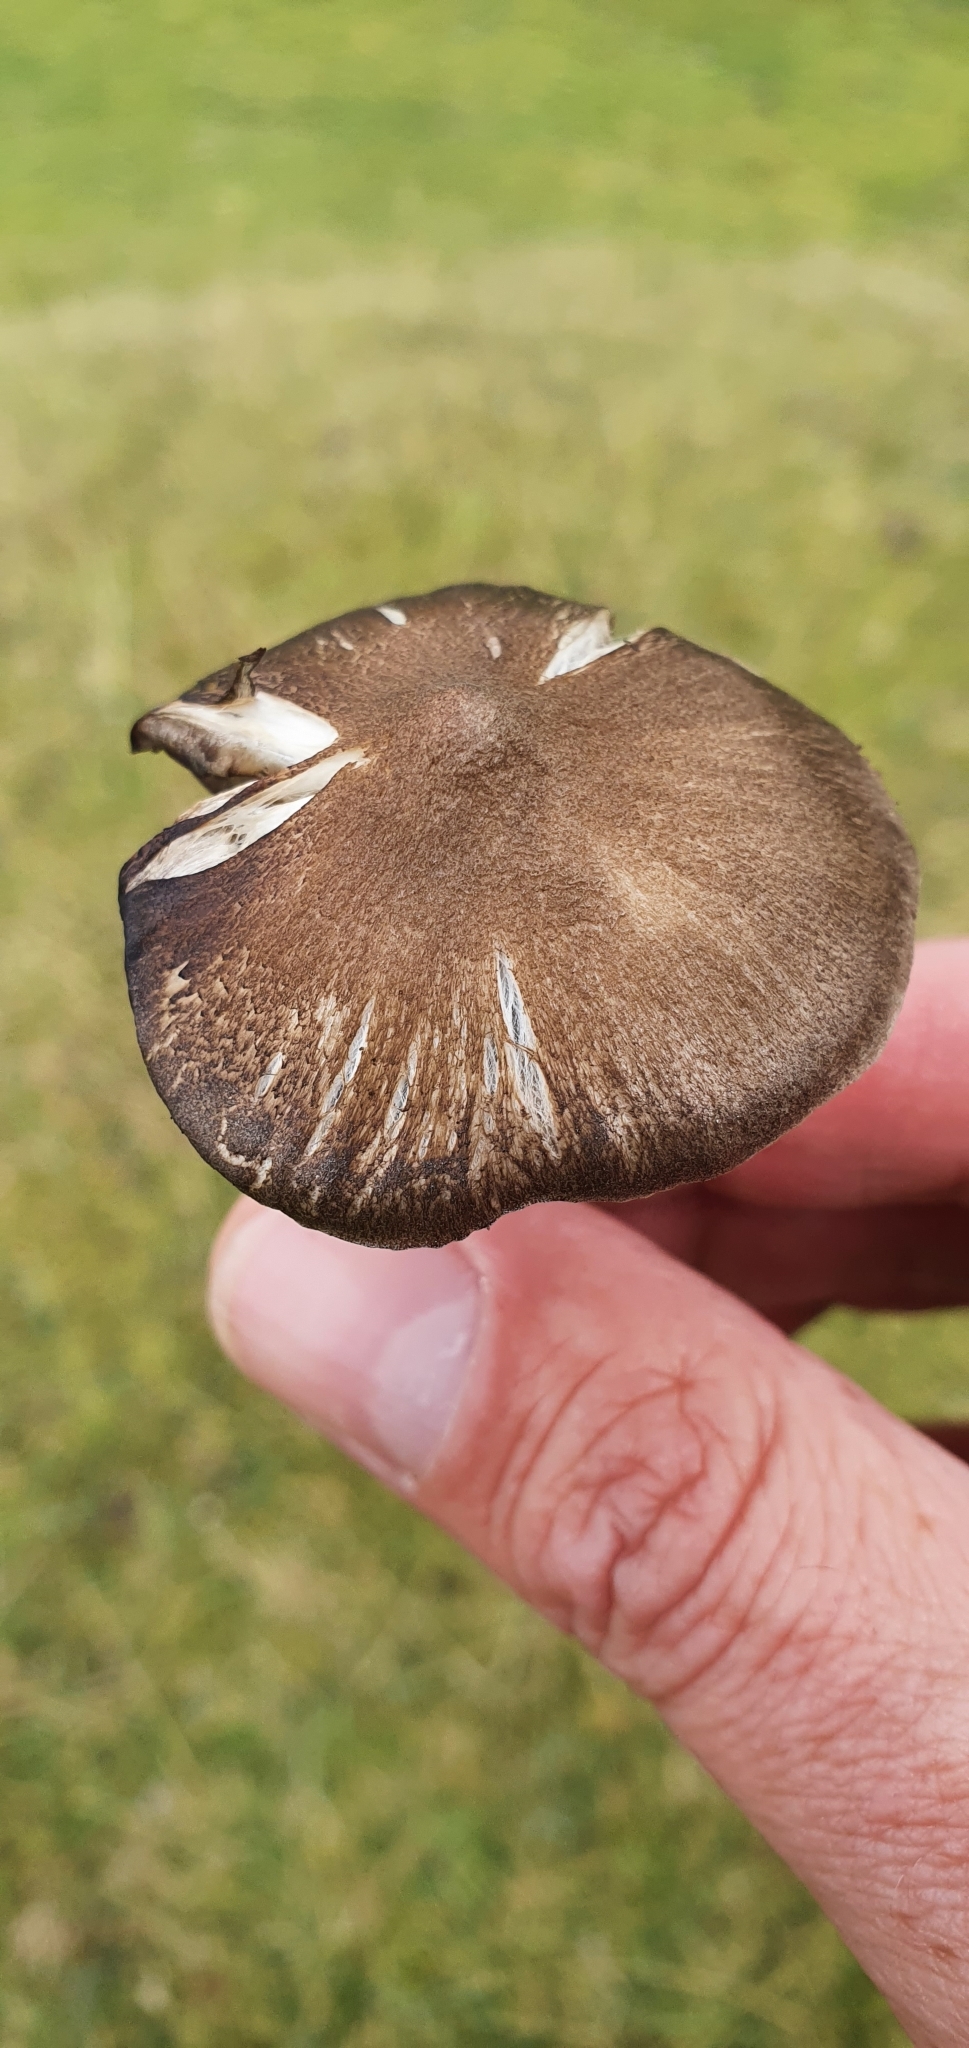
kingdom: Fungi
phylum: Basidiomycota
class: Agaricomycetes
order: Agaricales
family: Entolomataceae
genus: Entoloma
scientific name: Entoloma jubatum
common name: Sepia pinkgill
